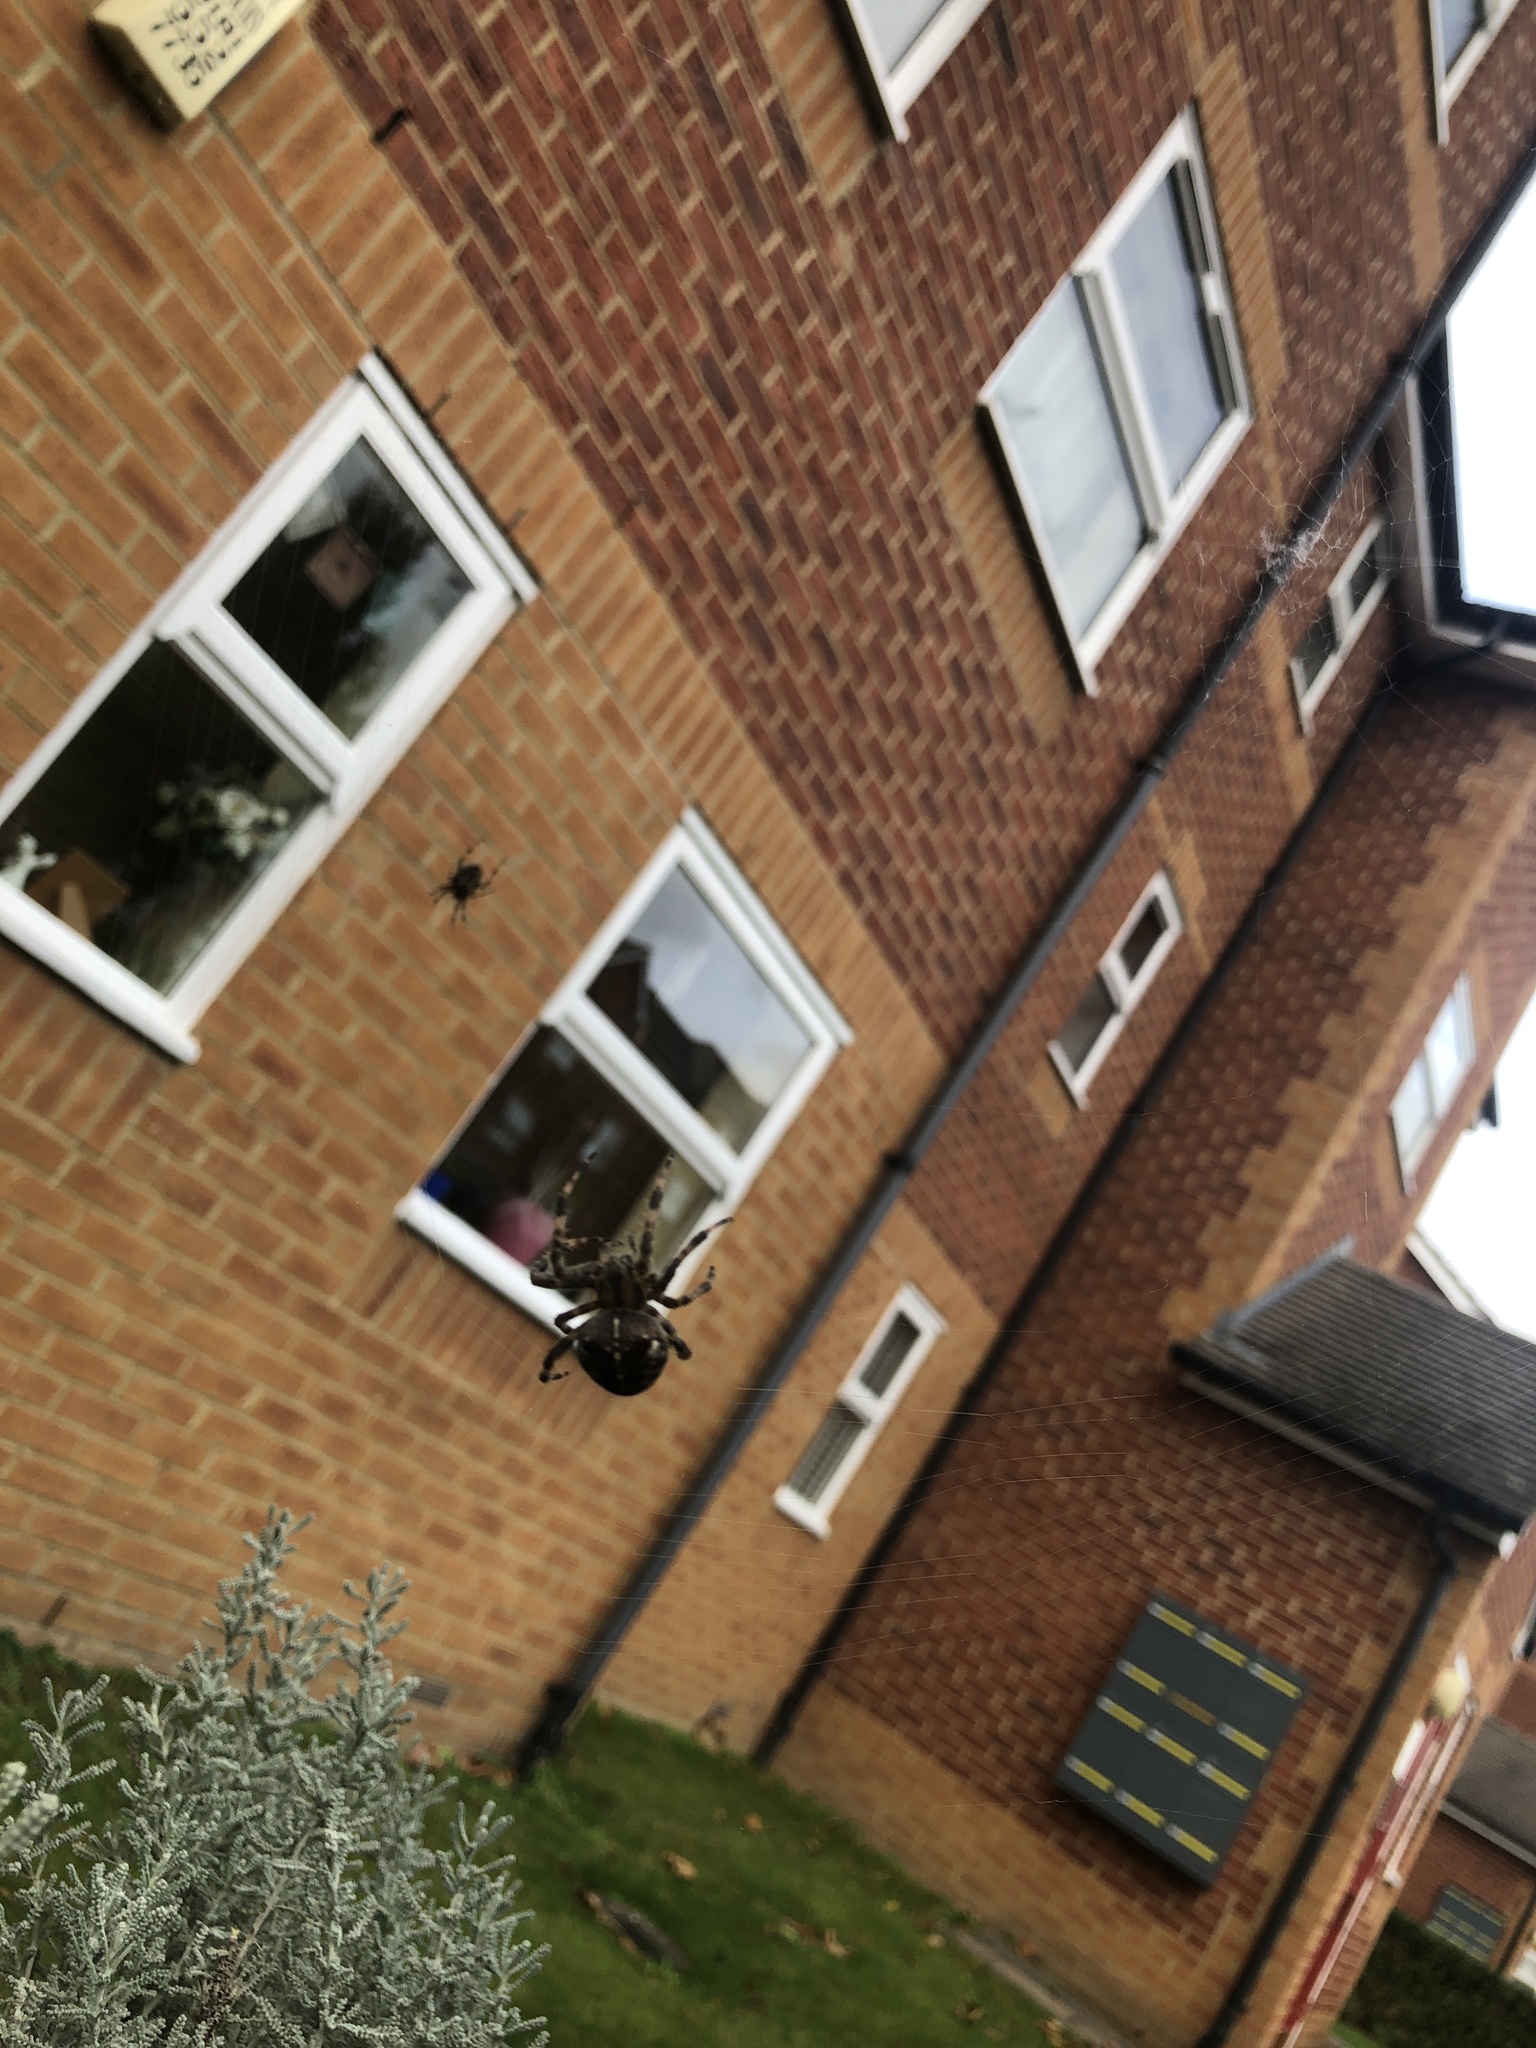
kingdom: Animalia
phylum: Arthropoda
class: Arachnida
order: Araneae
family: Araneidae
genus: Araneus
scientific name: Araneus diadematus
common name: Cross orbweaver
